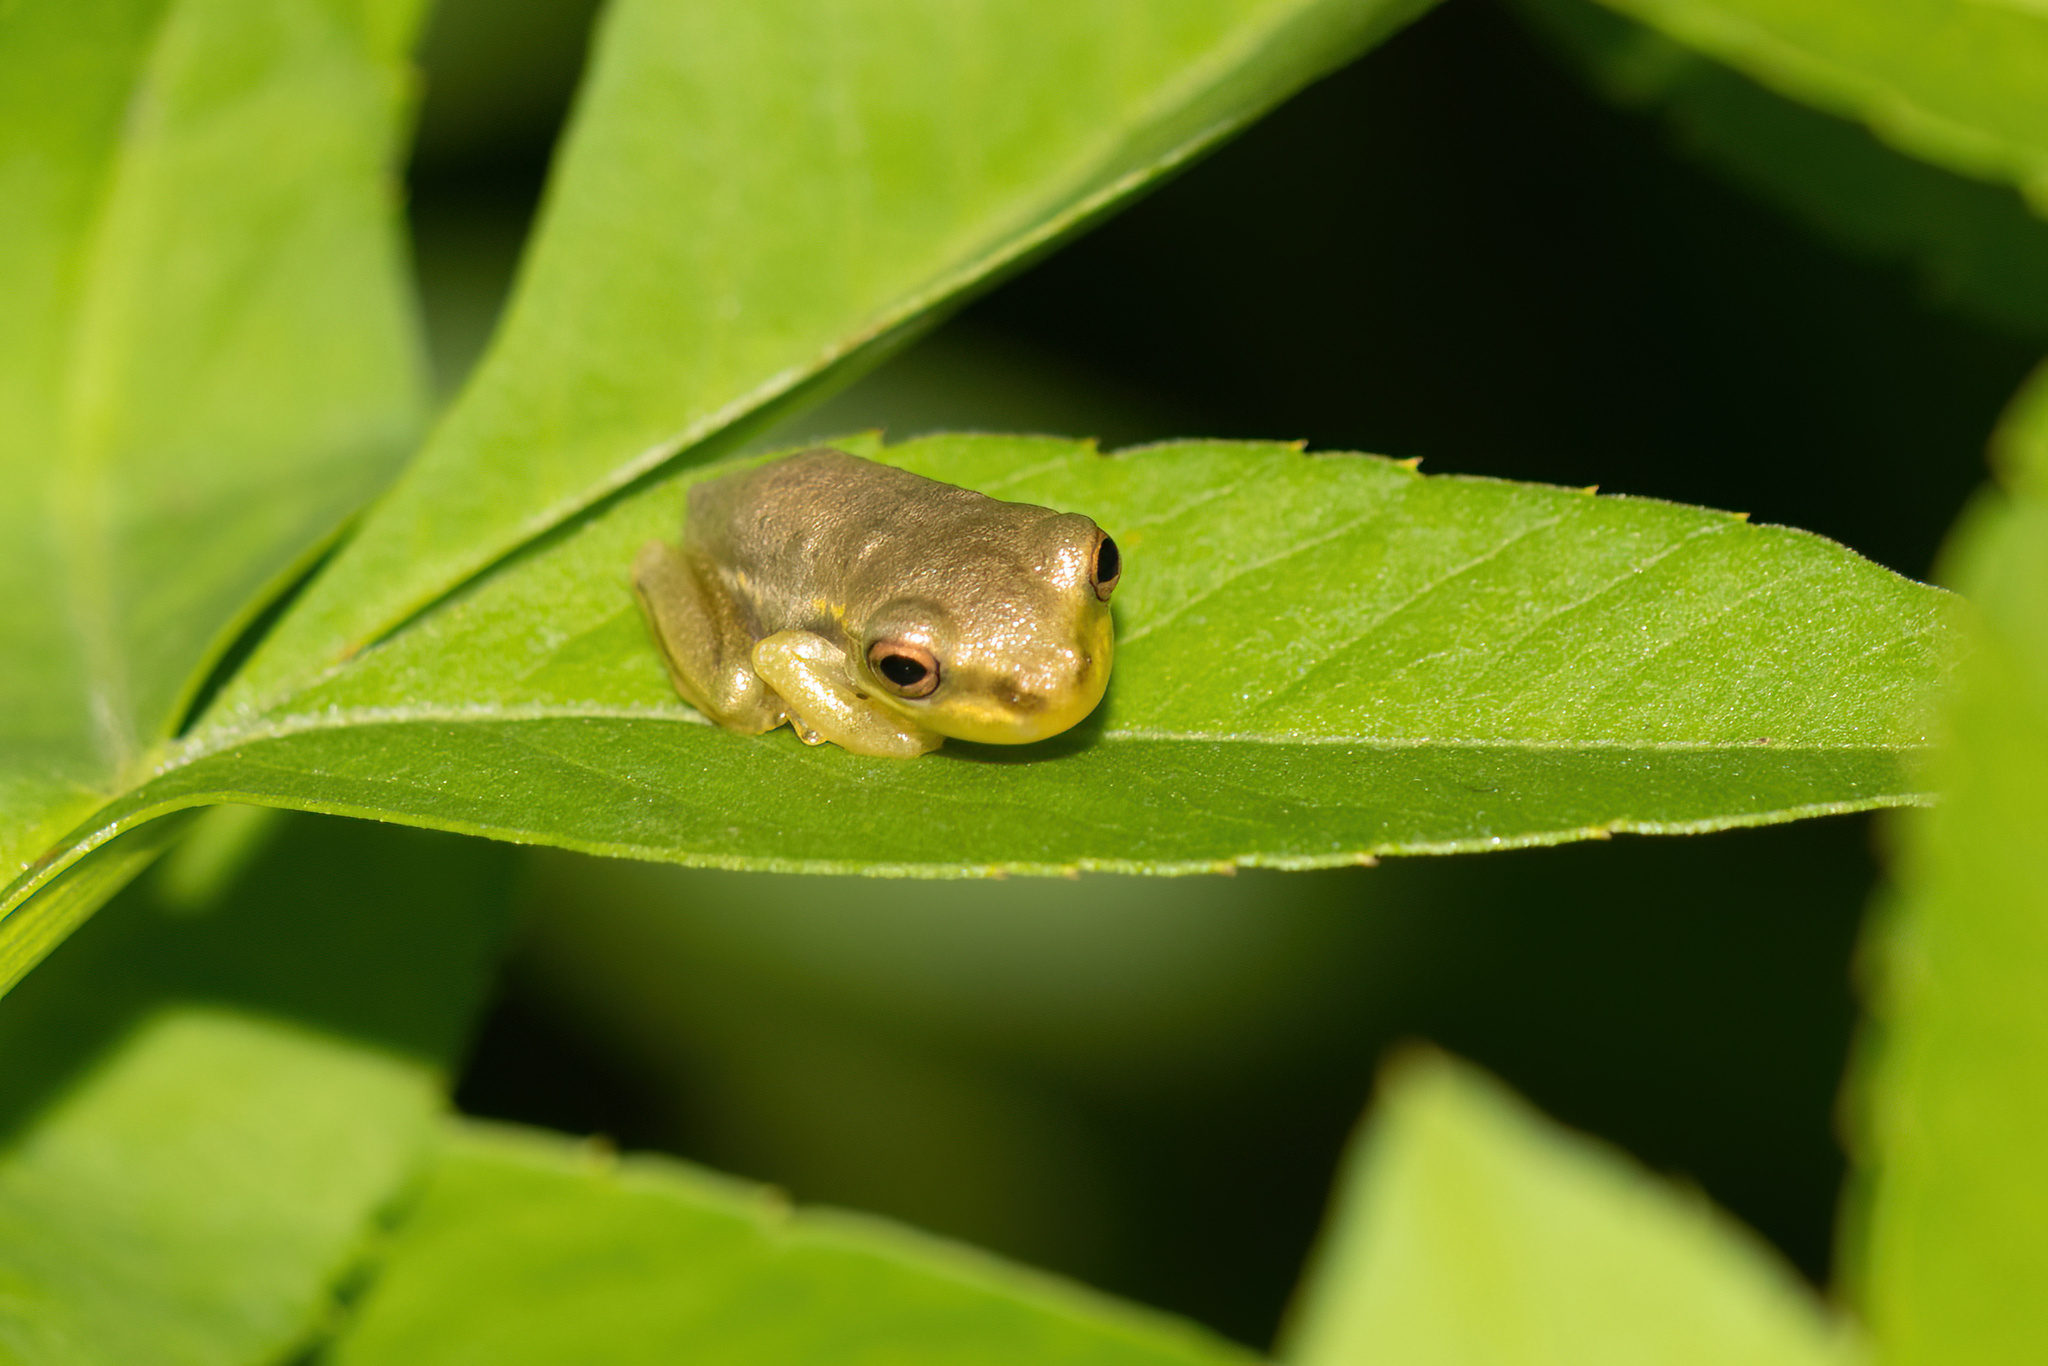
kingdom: Animalia
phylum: Chordata
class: Amphibia
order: Anura
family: Hylidae
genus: Osteopilus
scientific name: Osteopilus septentrionalis
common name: Cuban treefrog
